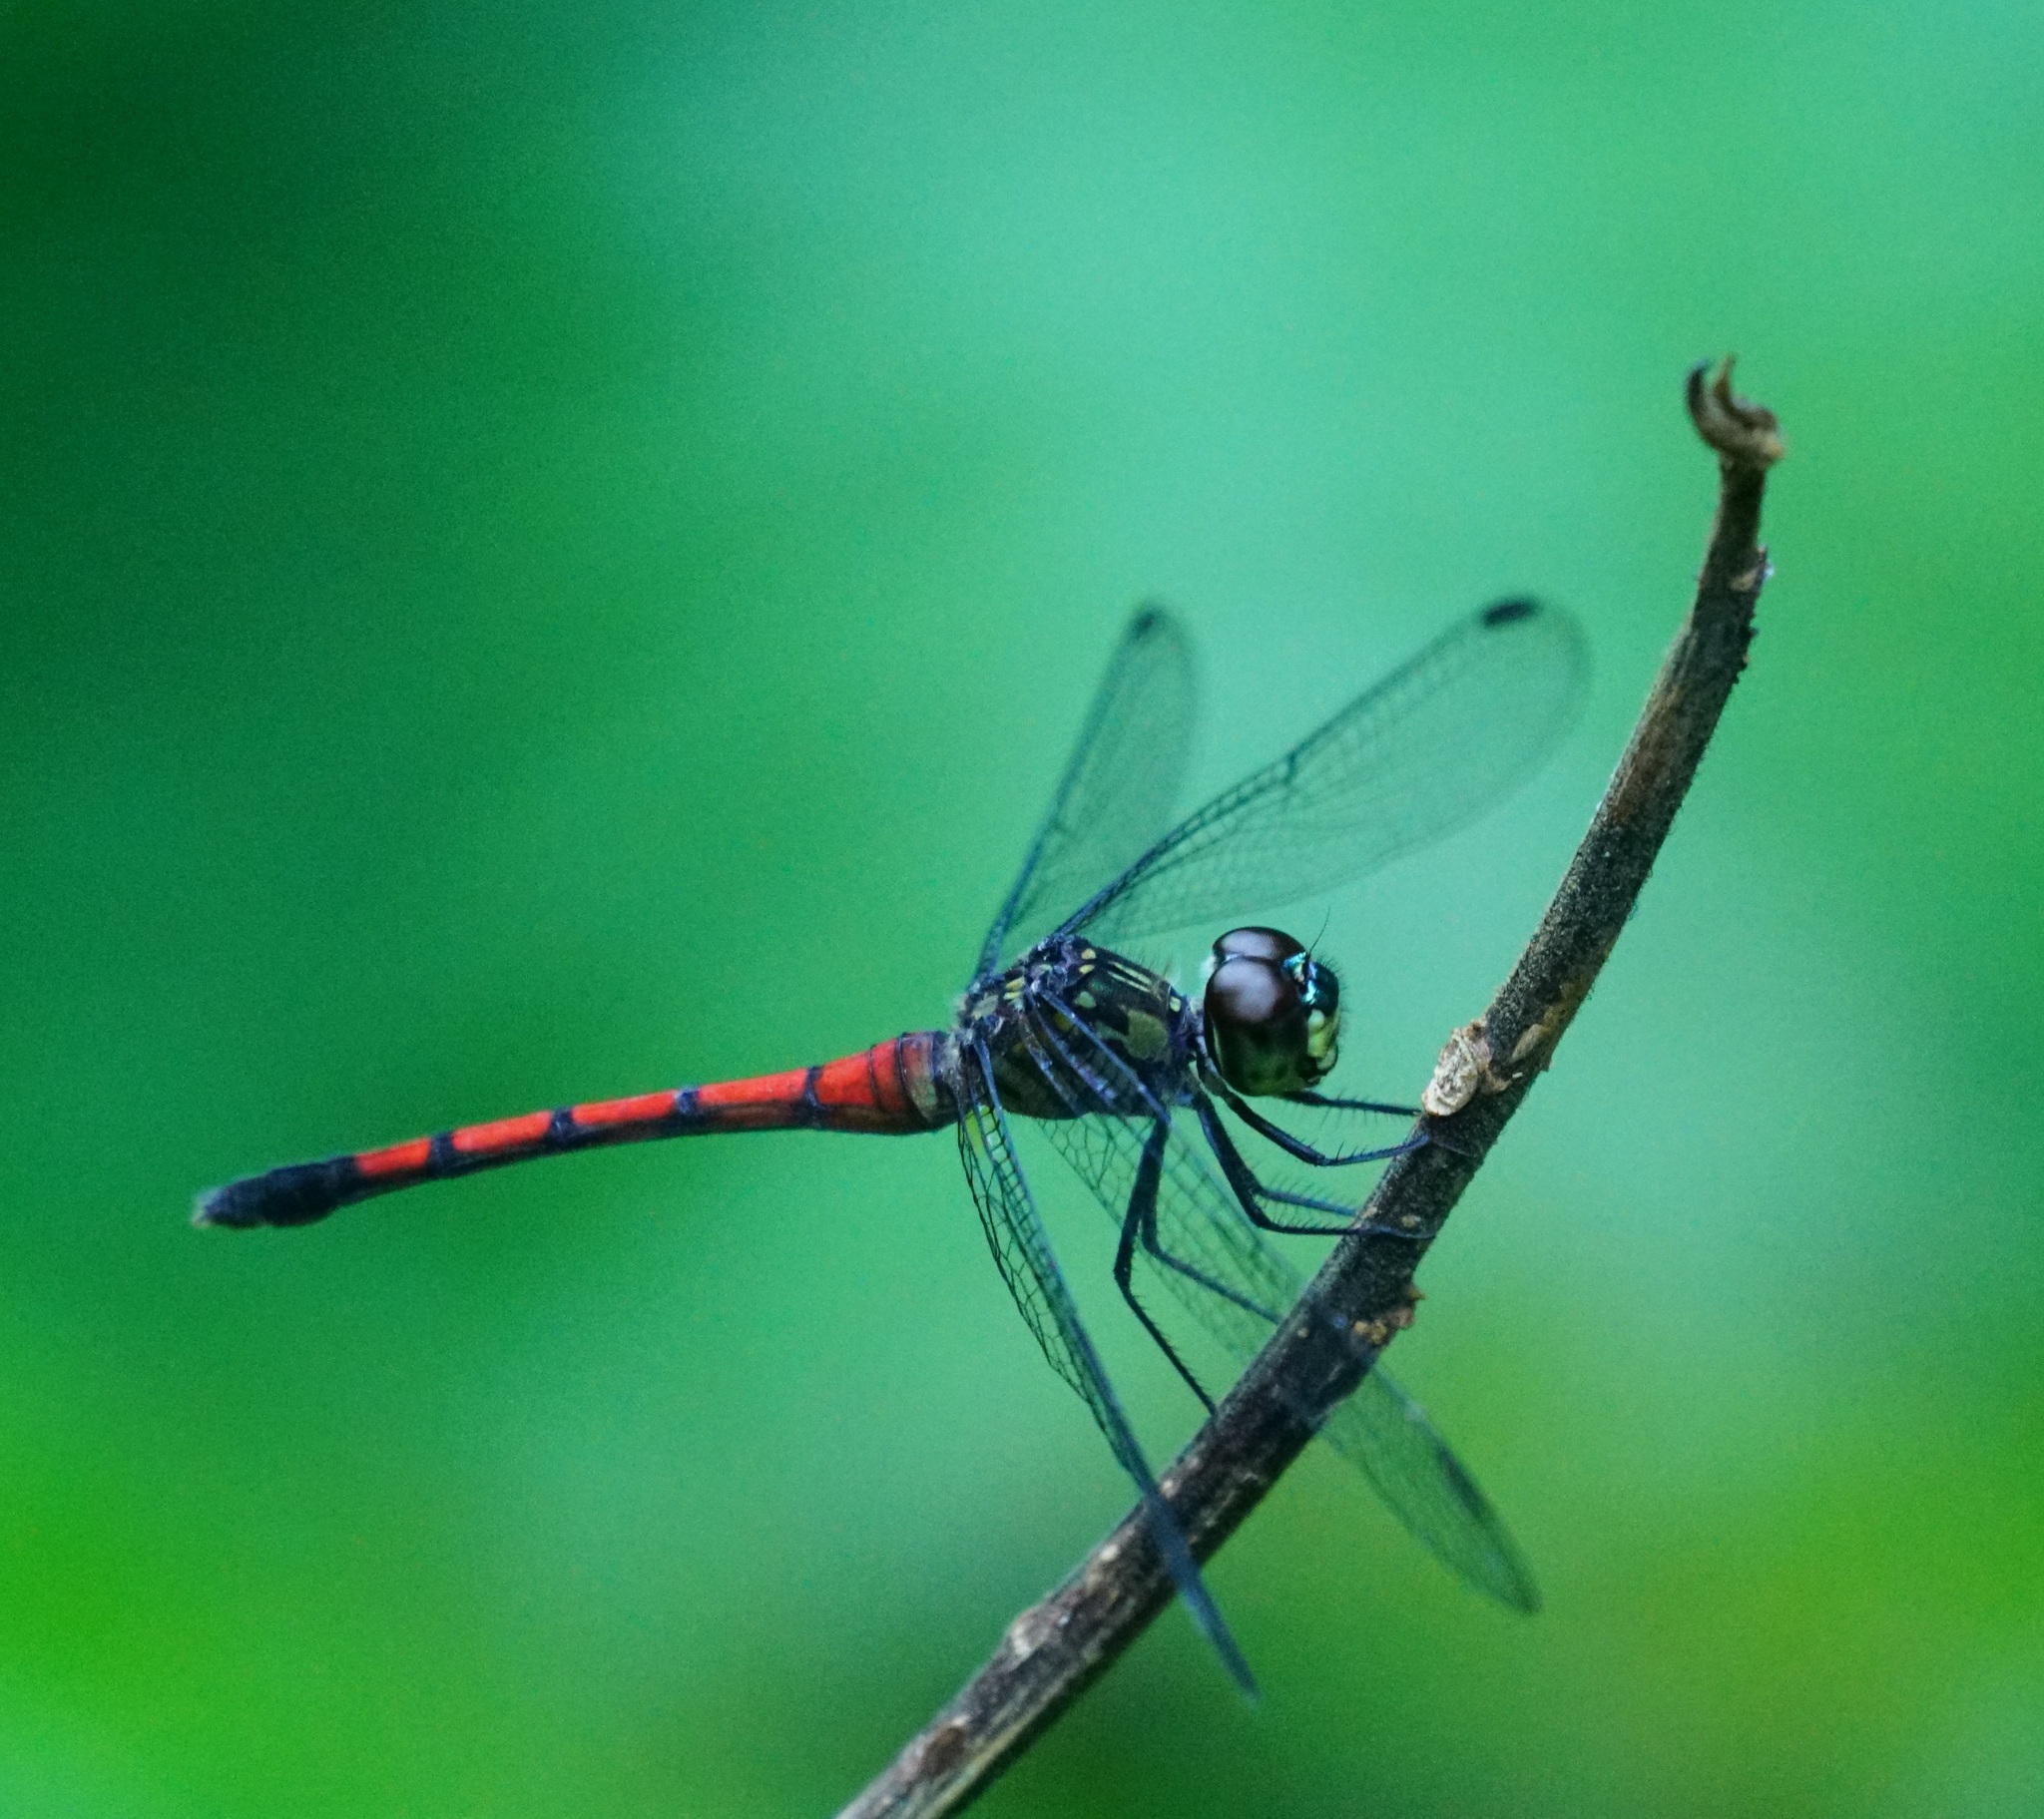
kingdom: Animalia
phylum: Arthropoda
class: Insecta
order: Odonata
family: Libellulidae
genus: Agrionoptera
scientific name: Agrionoptera insignis
